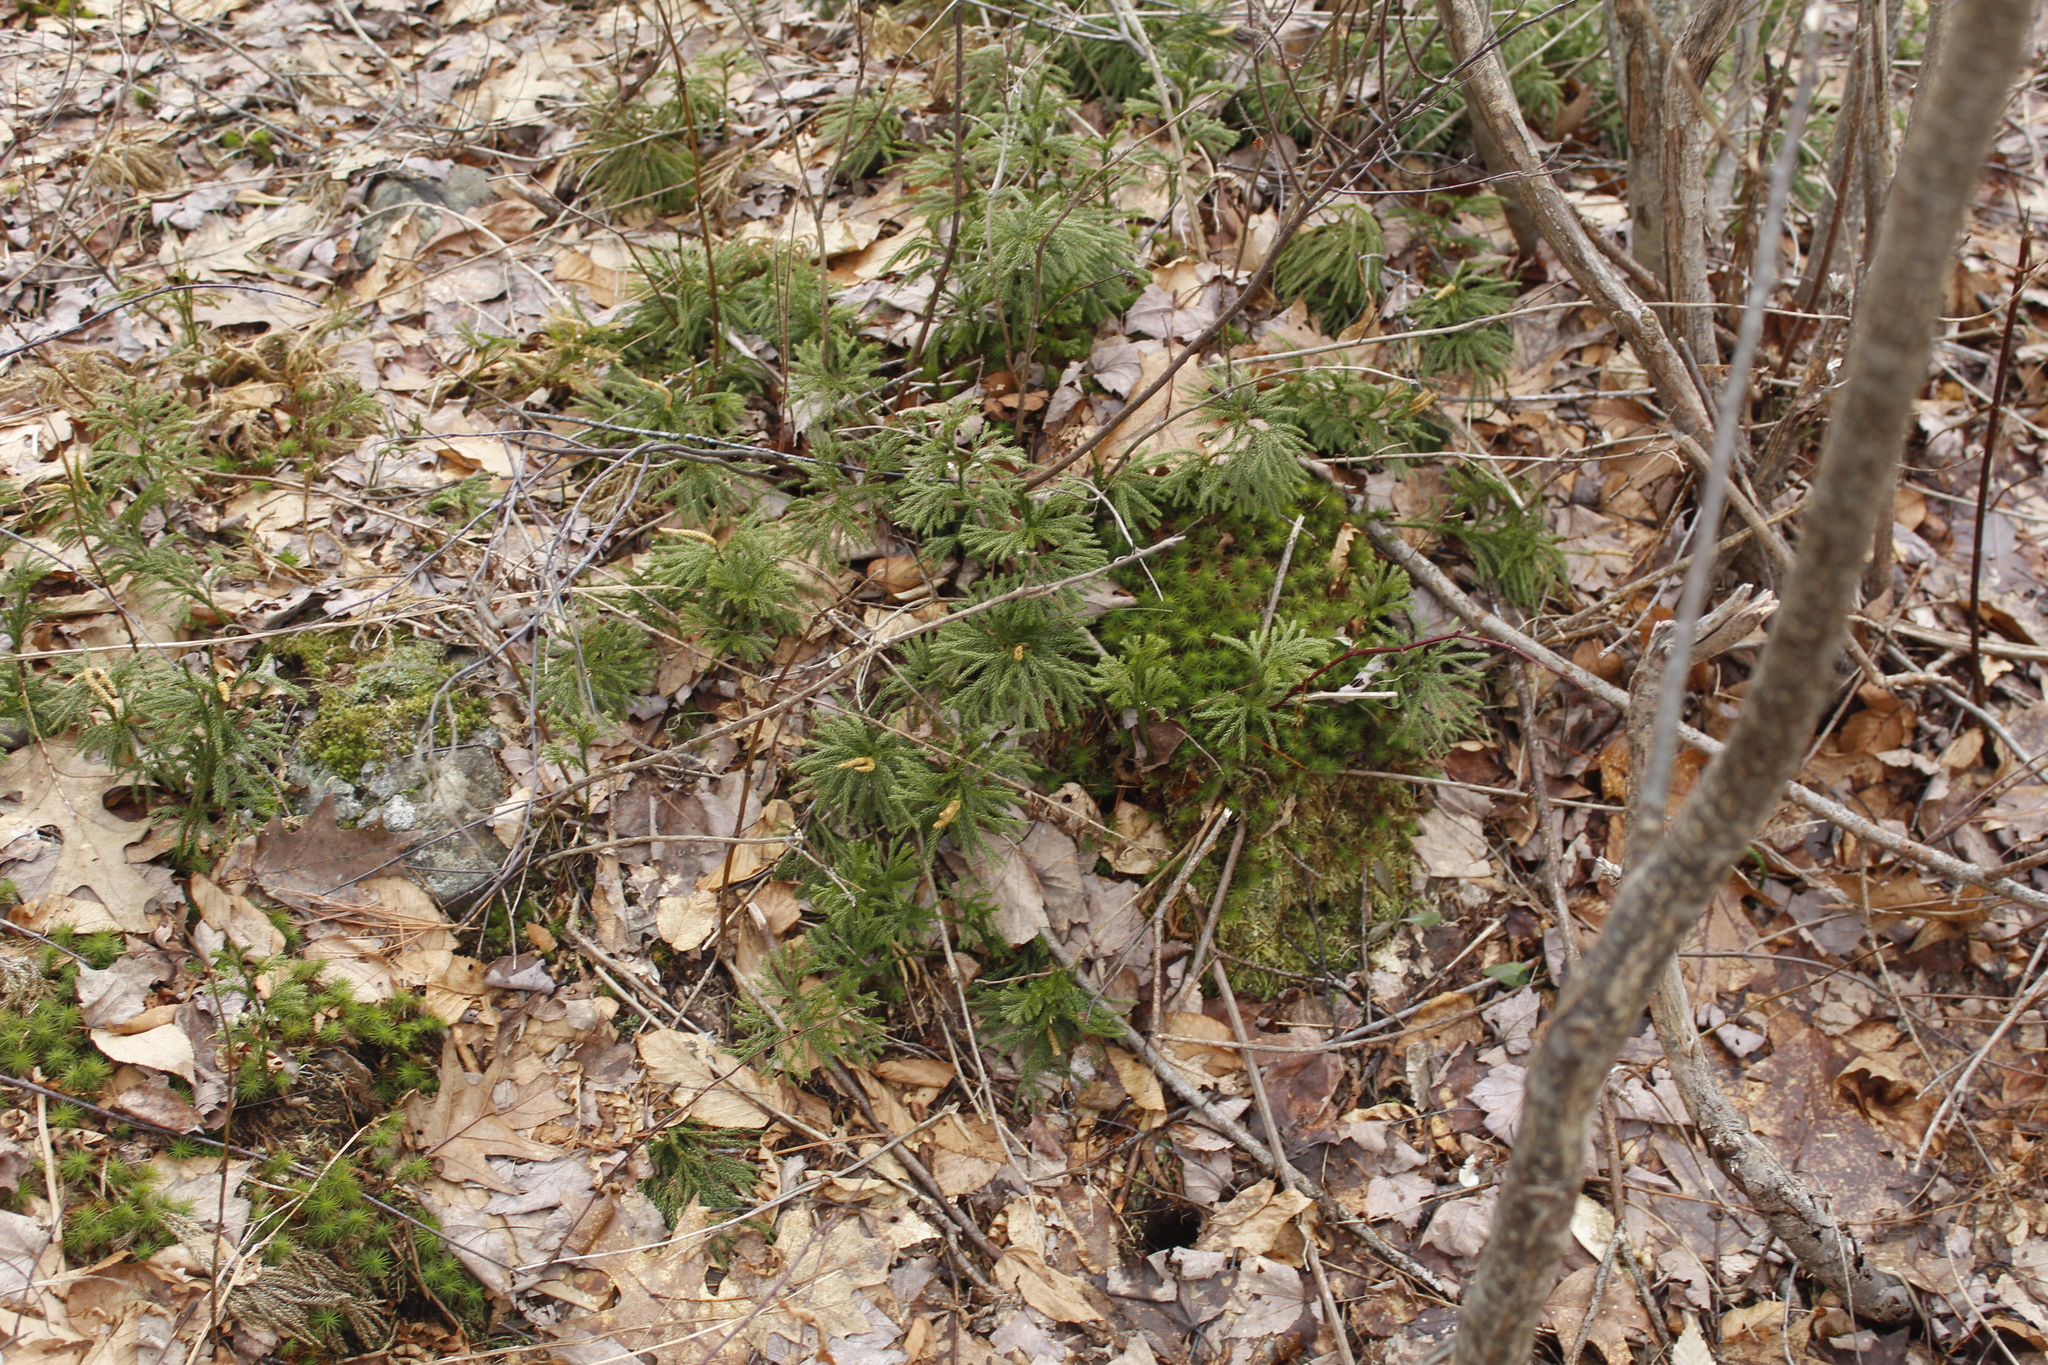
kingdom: Plantae
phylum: Tracheophyta
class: Lycopodiopsida
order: Lycopodiales
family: Lycopodiaceae
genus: Dendrolycopodium
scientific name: Dendrolycopodium obscurum
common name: Common ground-pine
